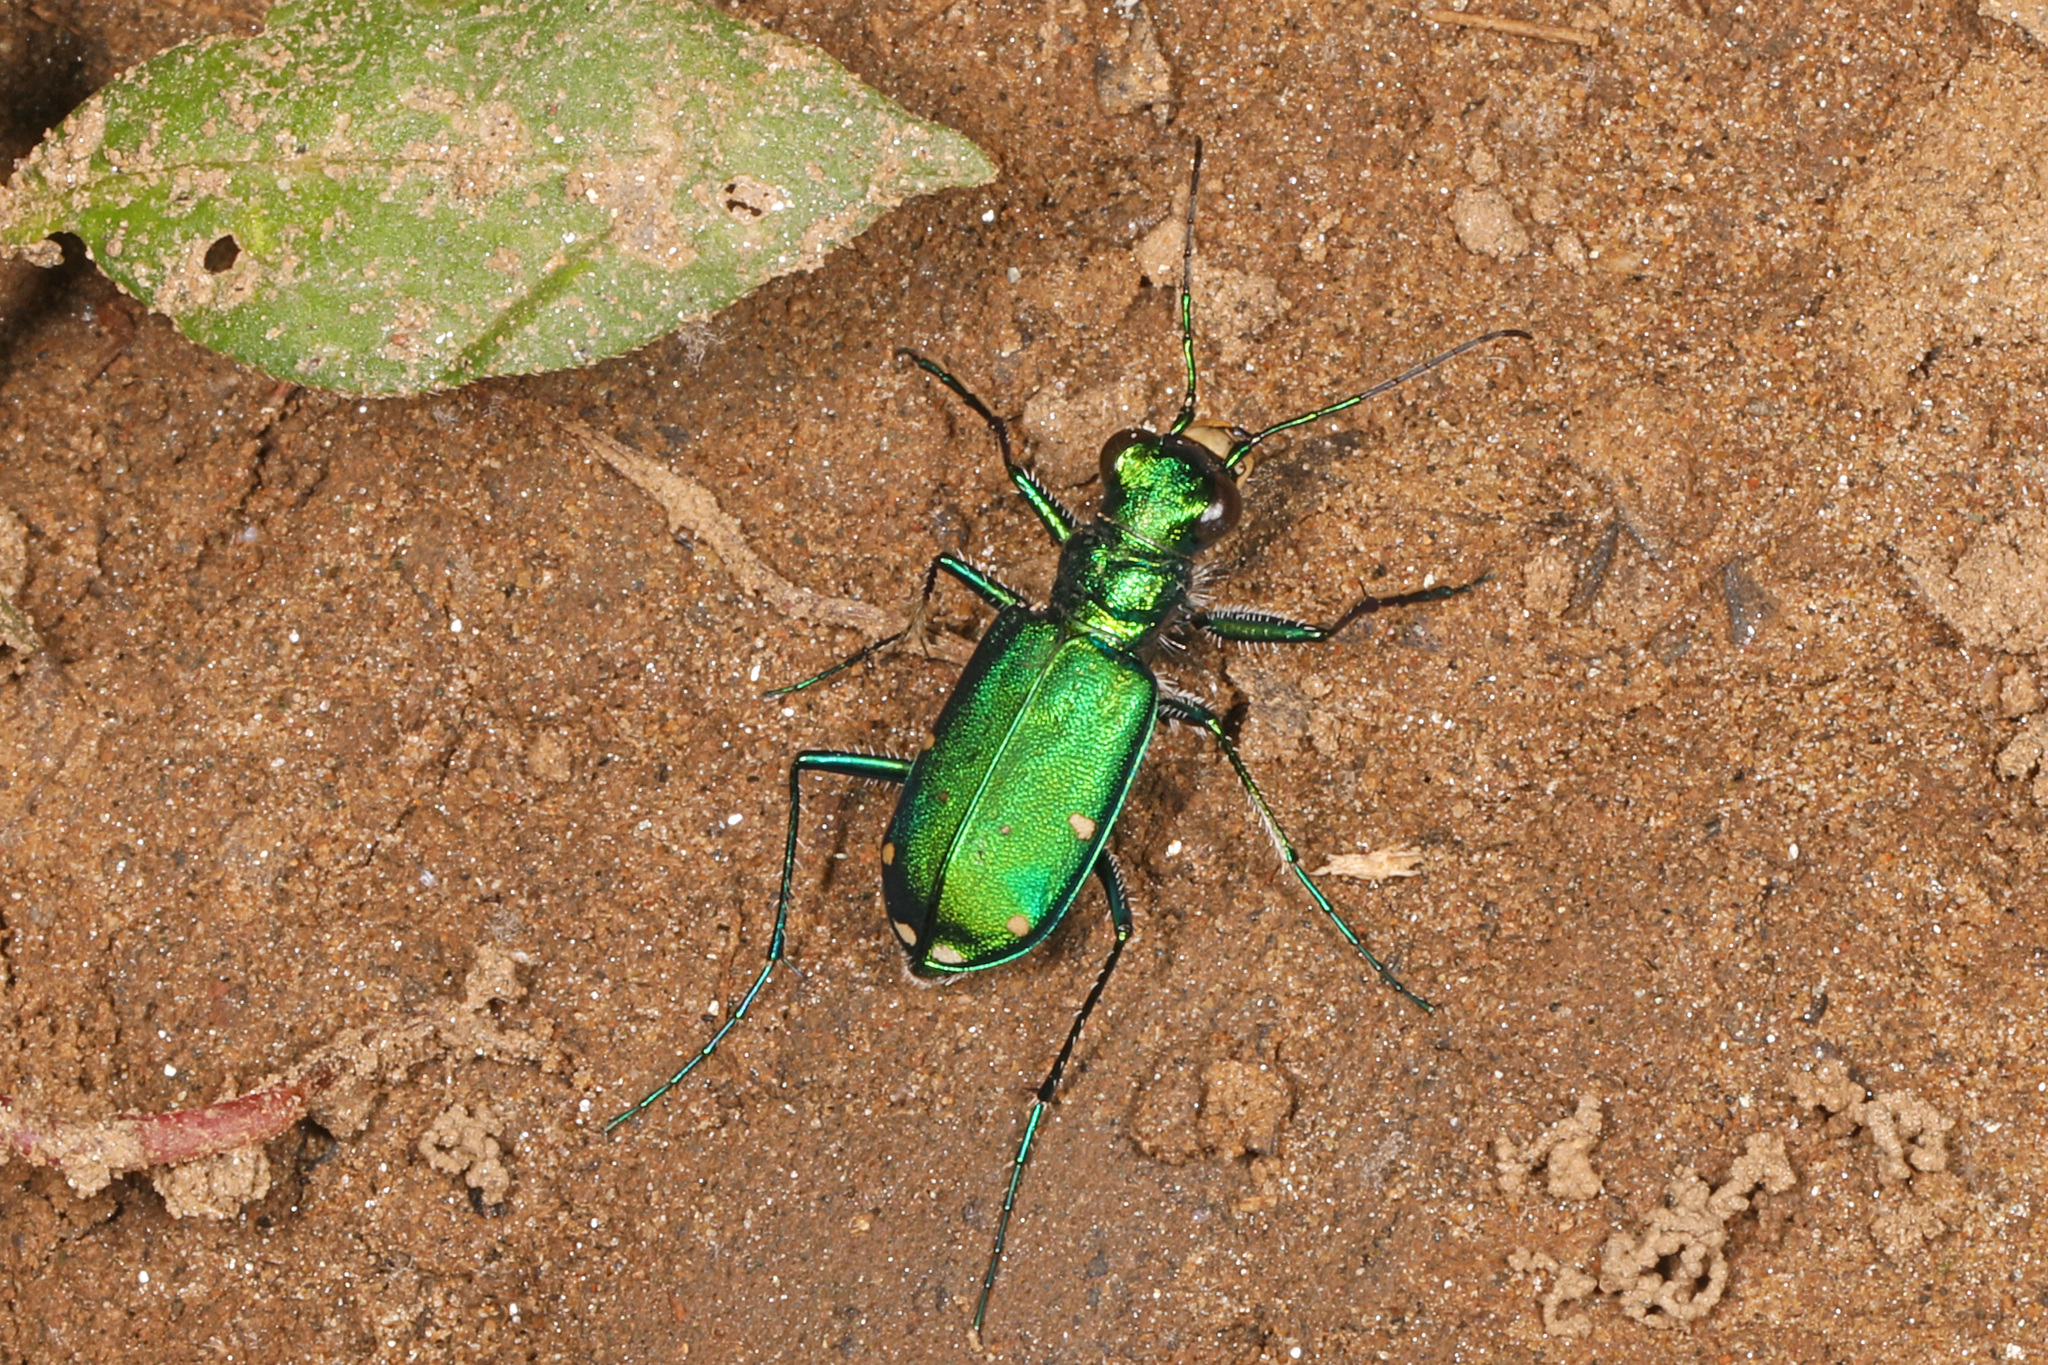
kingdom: Animalia
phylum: Arthropoda
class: Insecta
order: Coleoptera
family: Carabidae
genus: Cicindela
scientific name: Cicindela sexguttata
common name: Six-spotted tiger beetle
